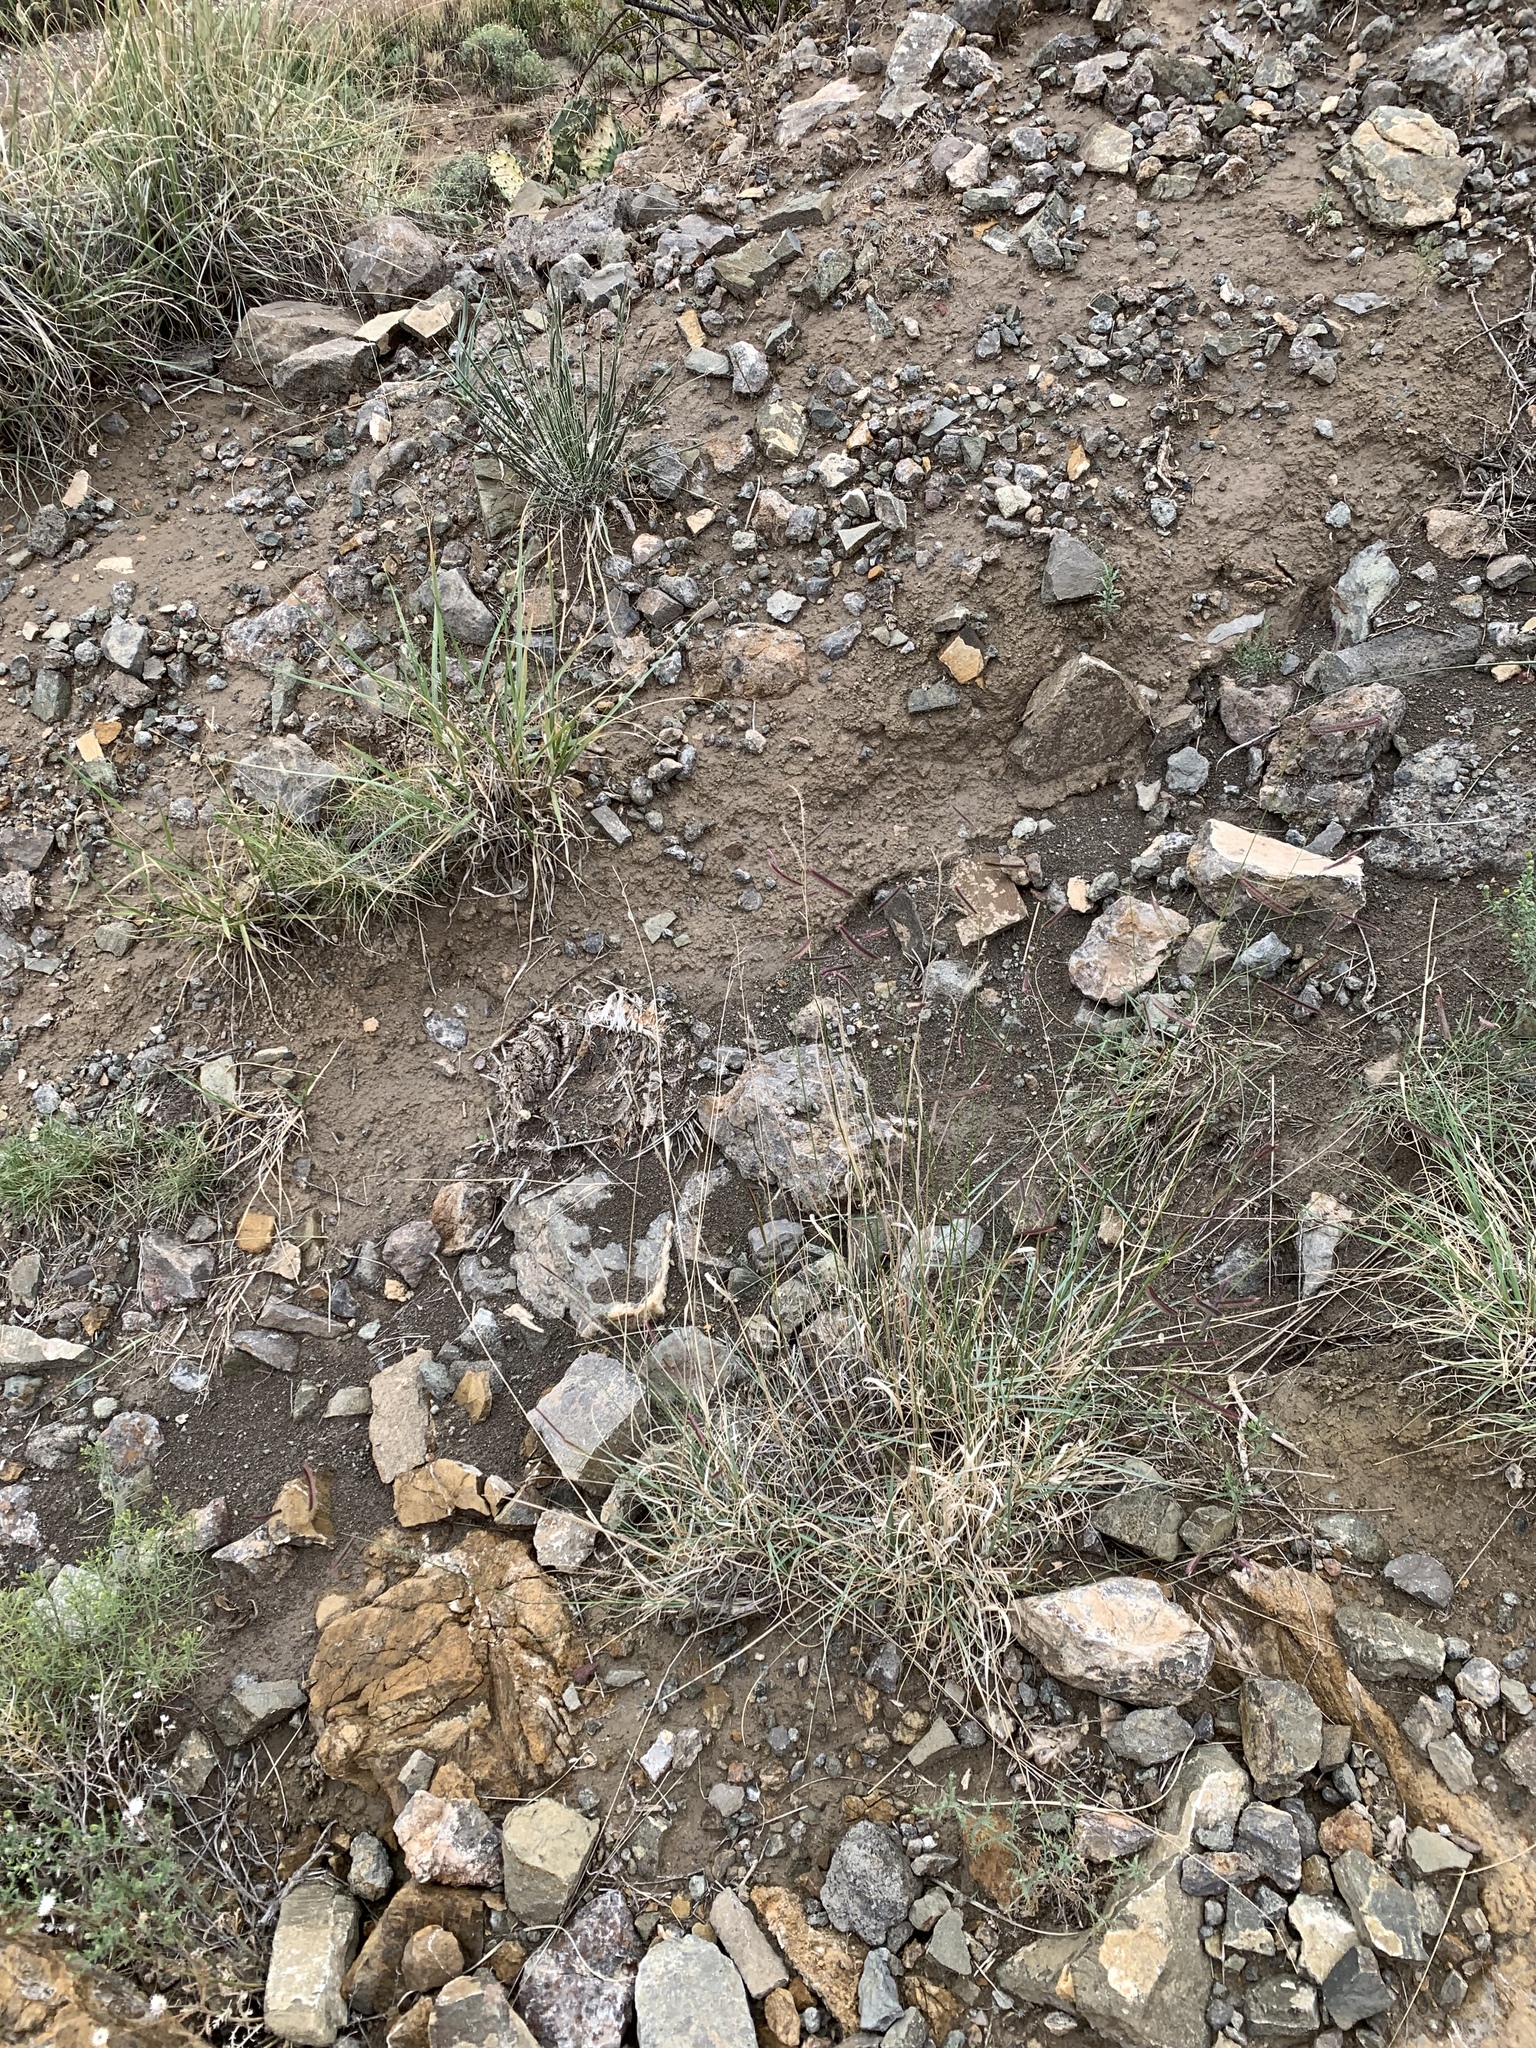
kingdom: Plantae
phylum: Tracheophyta
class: Liliopsida
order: Poales
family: Poaceae
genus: Bouteloua
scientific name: Bouteloua gracilis
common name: Blue grama
